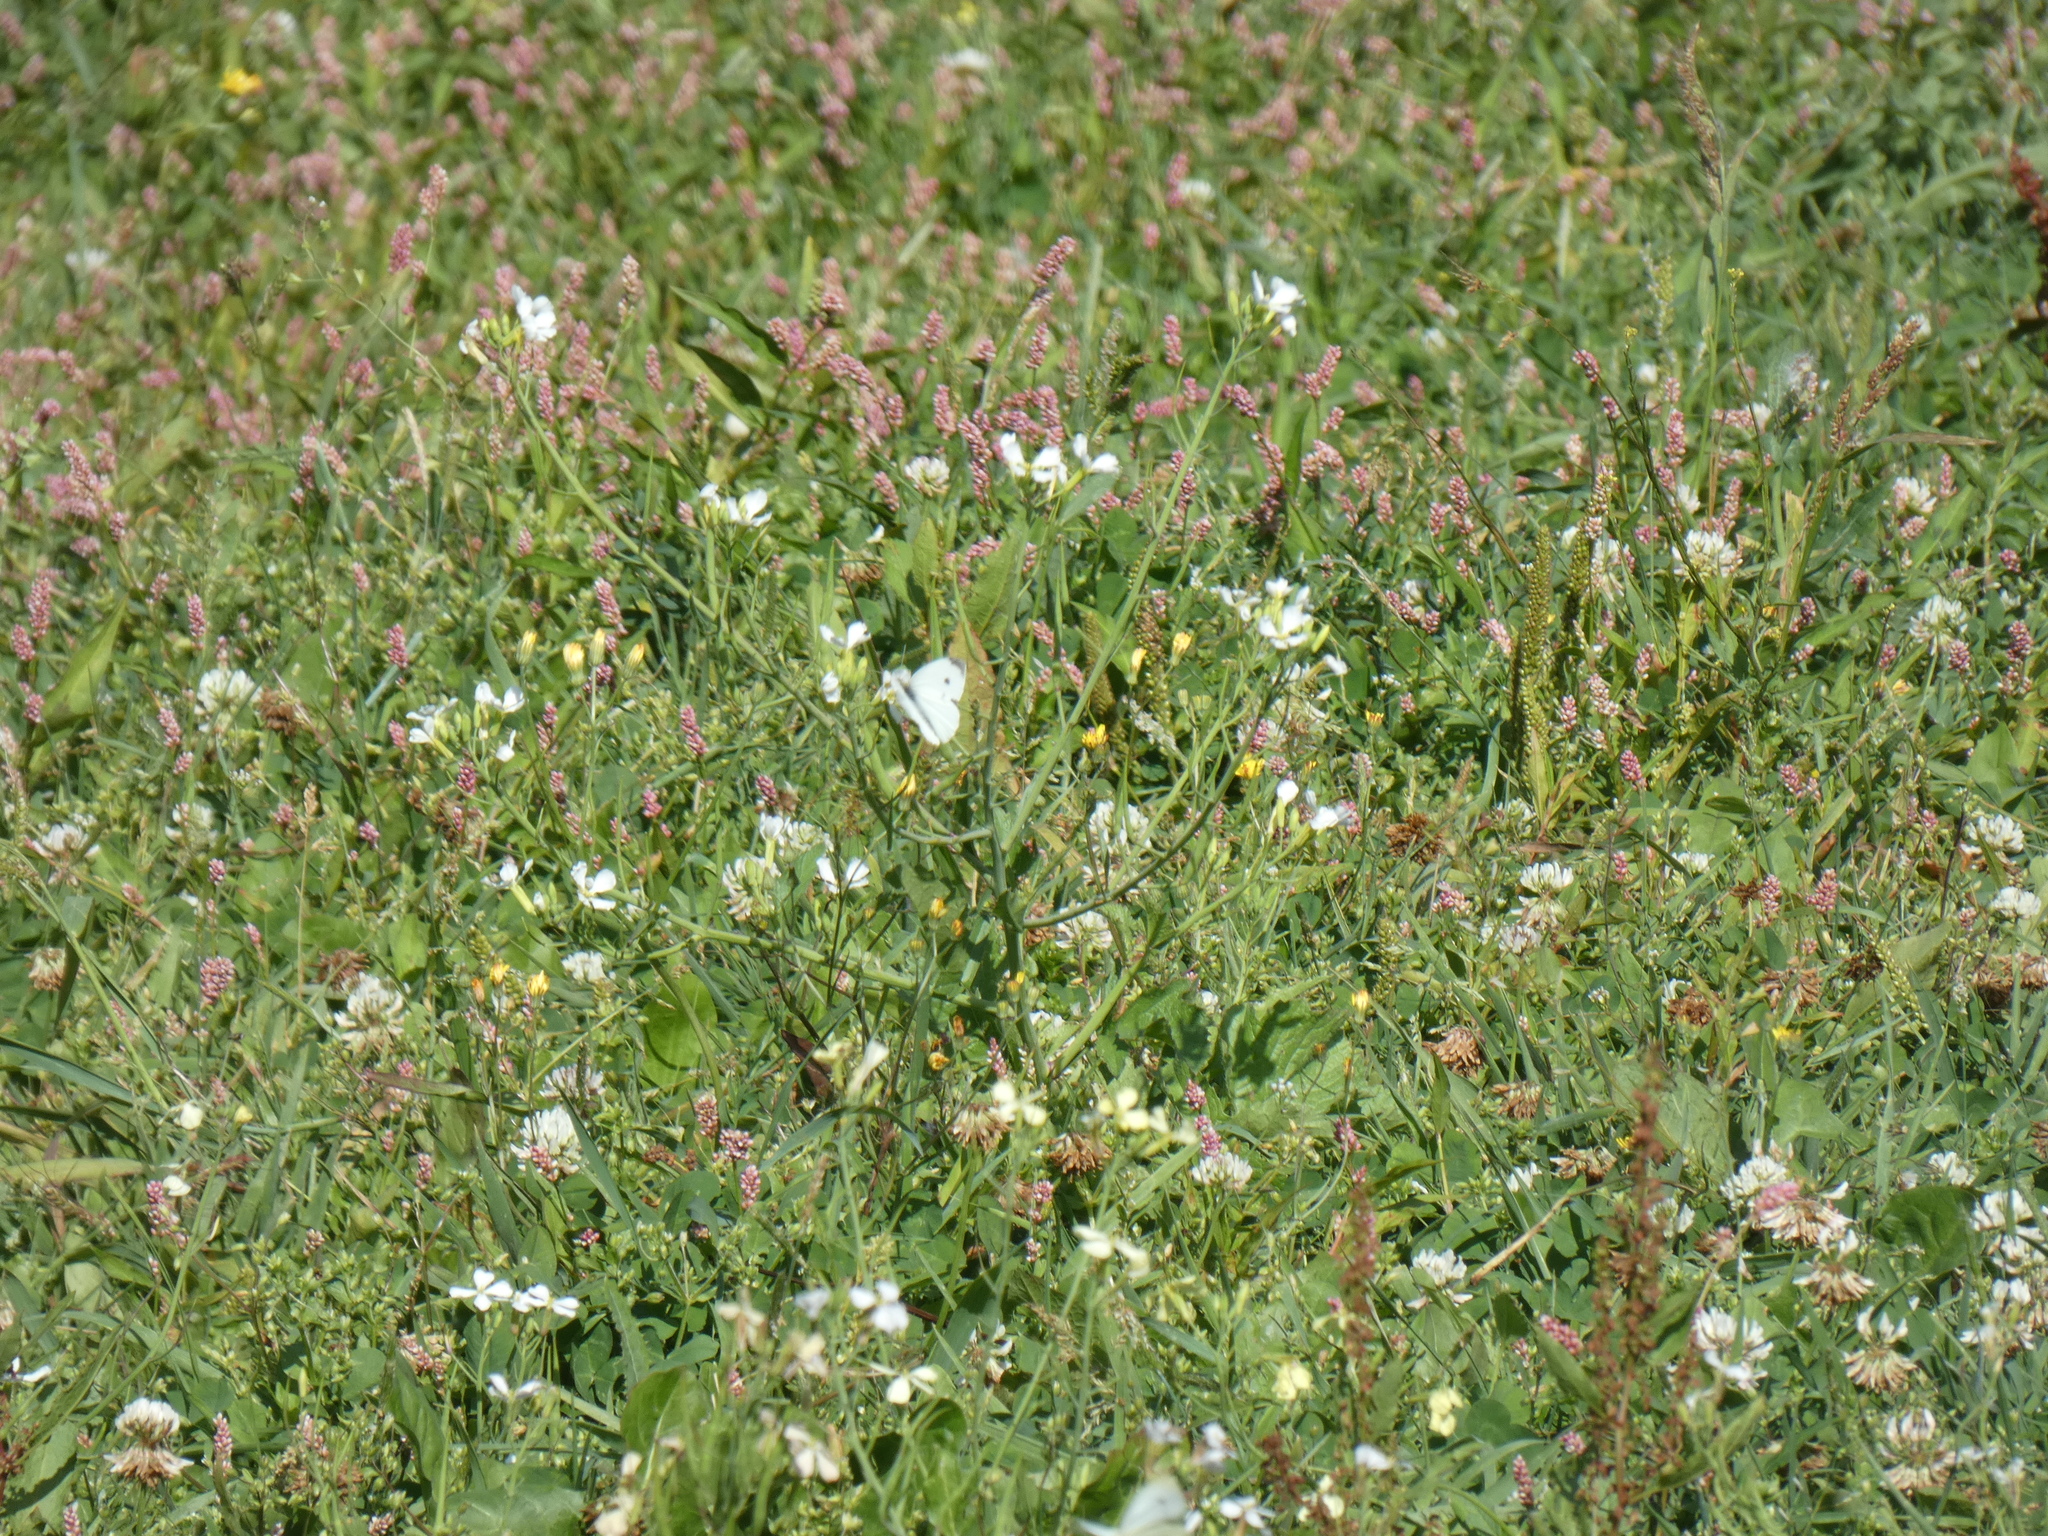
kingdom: Animalia
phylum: Arthropoda
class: Insecta
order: Lepidoptera
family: Pieridae
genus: Pieris
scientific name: Pieris rapae
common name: Small white
